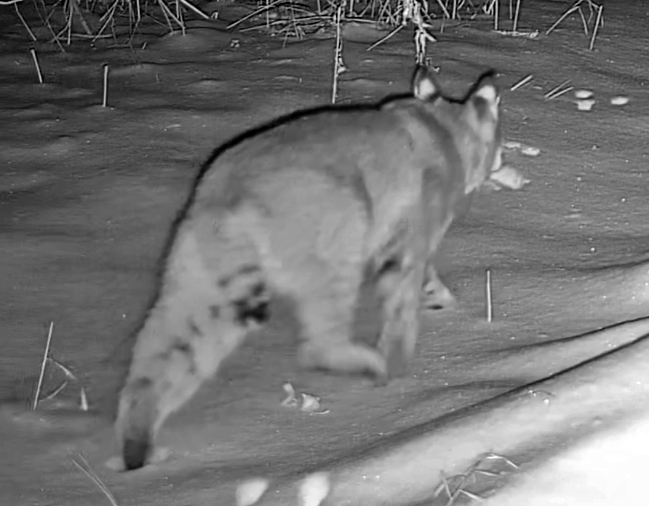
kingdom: Animalia
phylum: Chordata
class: Mammalia
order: Carnivora
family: Felidae
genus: Lynx
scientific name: Lynx rufus
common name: Bobcat
